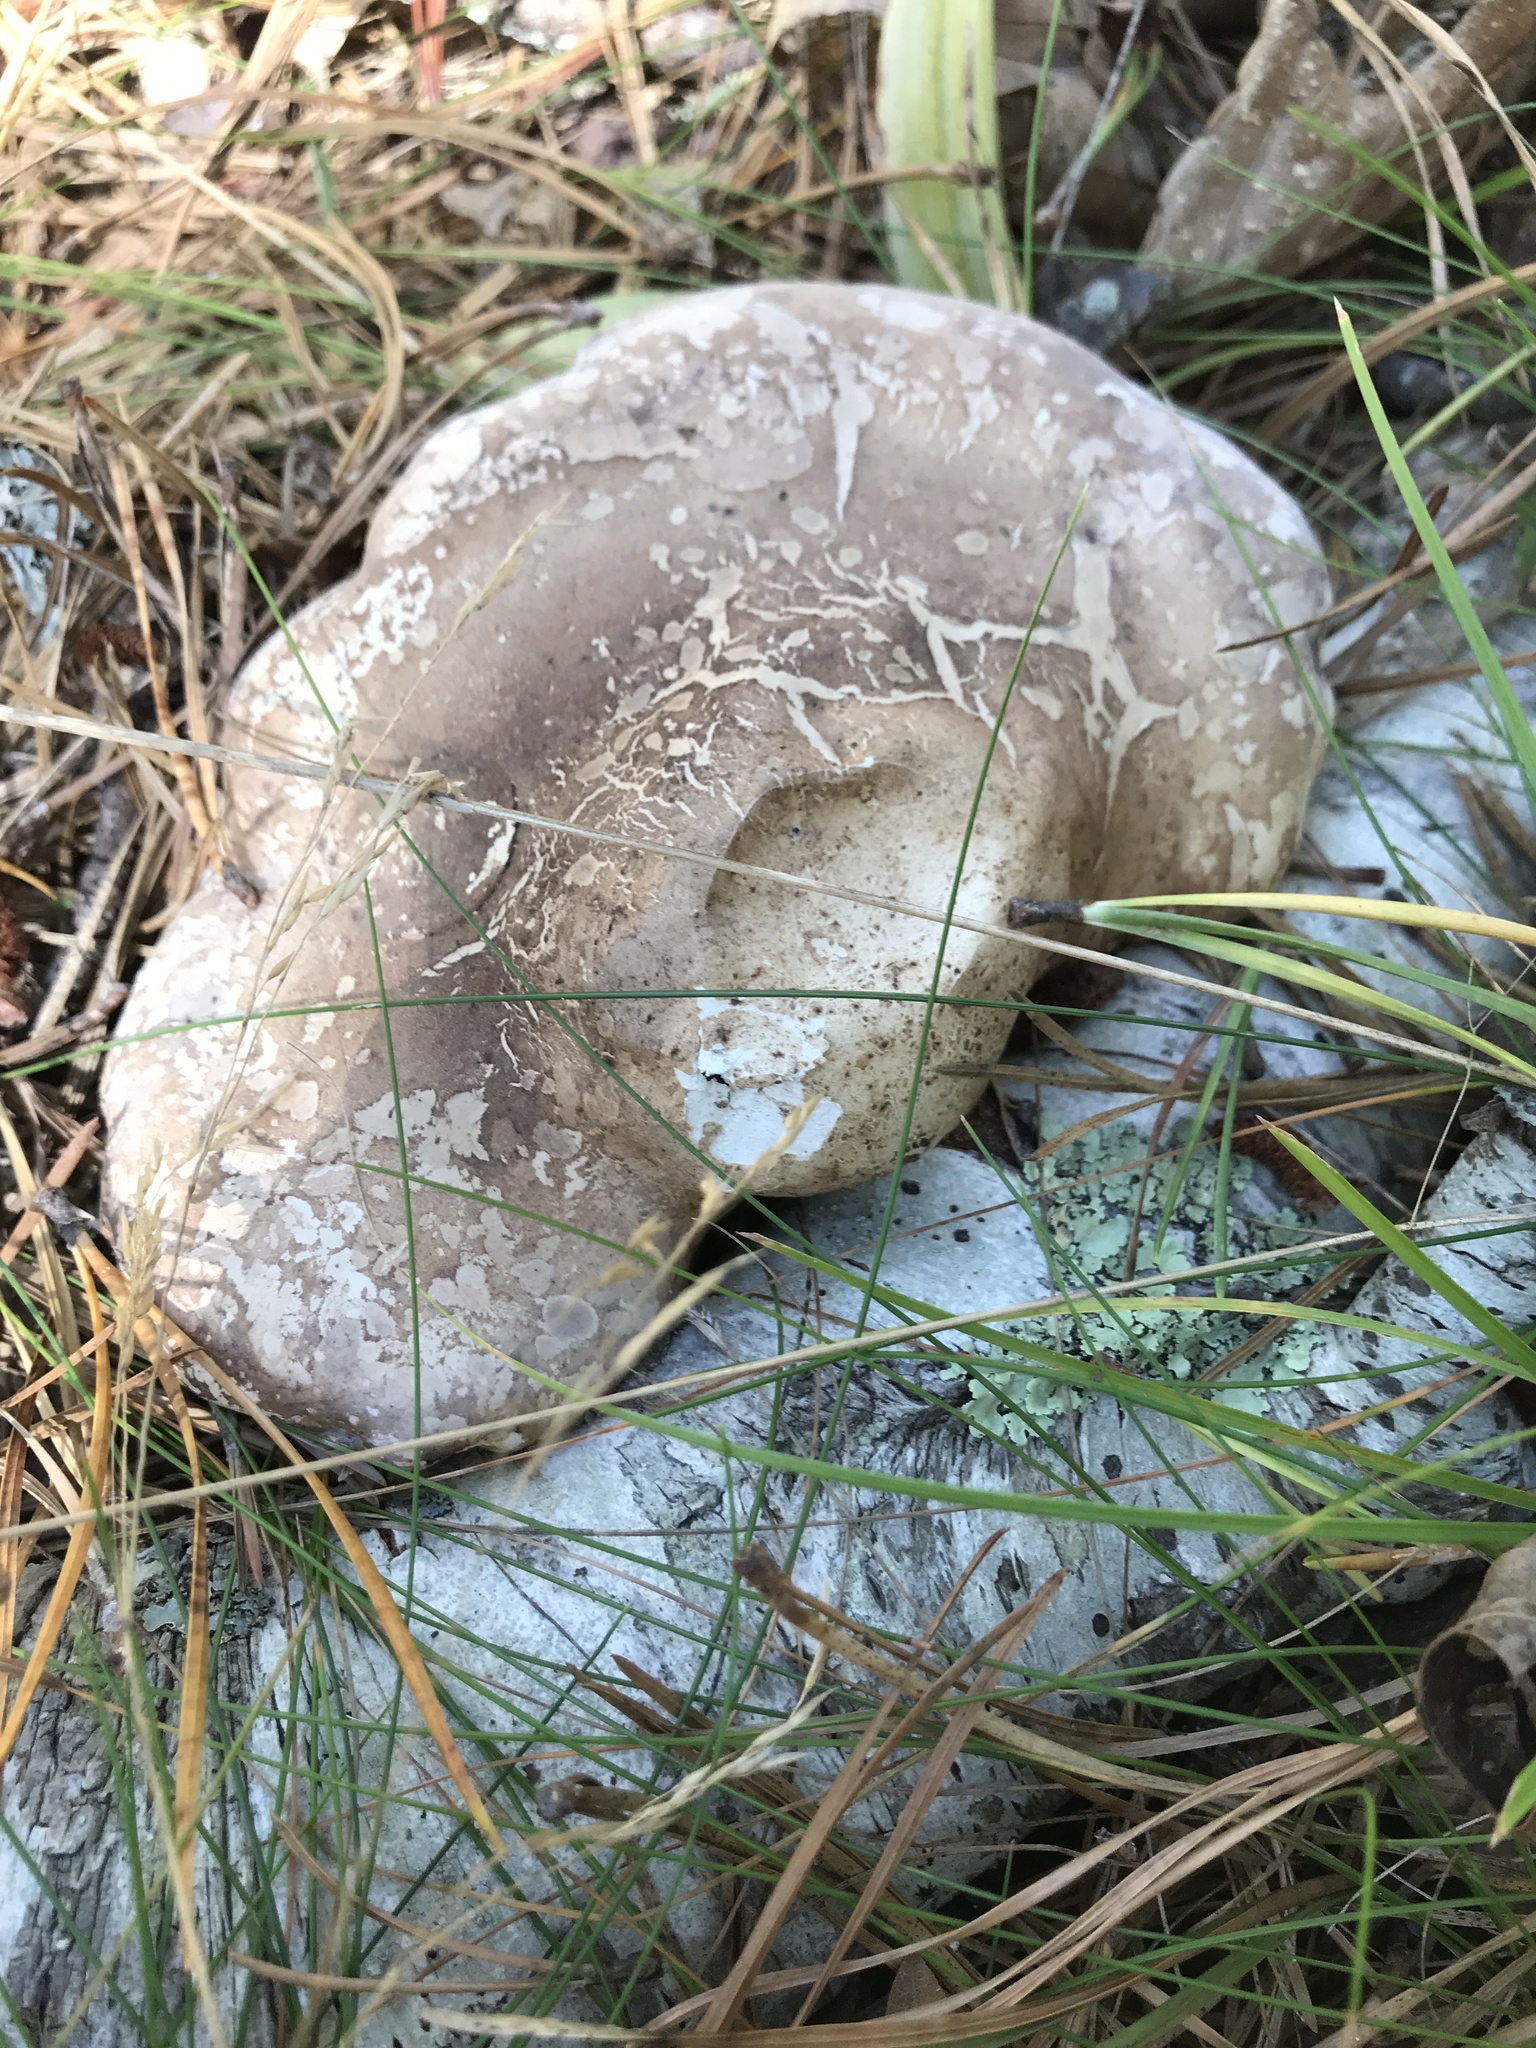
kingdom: Fungi
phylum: Basidiomycota
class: Agaricomycetes
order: Polyporales
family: Fomitopsidaceae
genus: Fomitopsis
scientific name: Fomitopsis betulina
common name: Birch polypore
